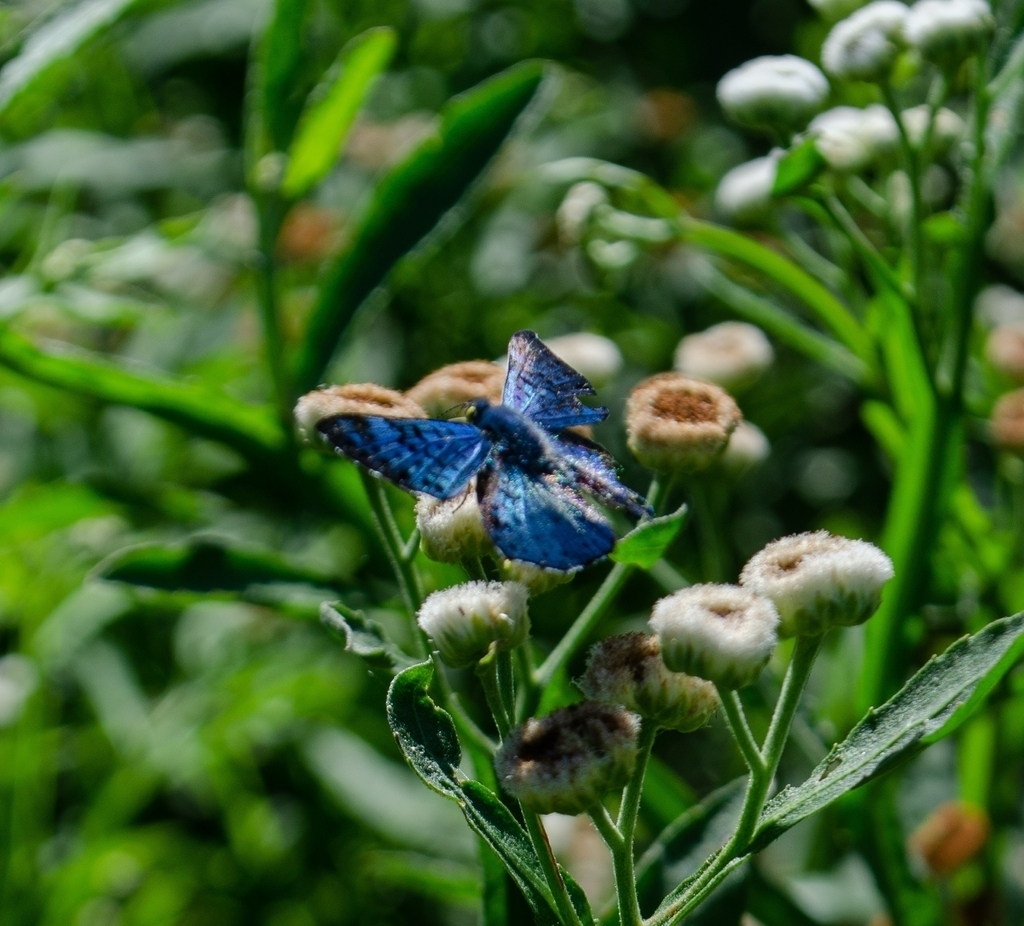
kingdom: Plantae
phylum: Tracheophyta
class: Magnoliopsida
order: Asterales
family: Asteraceae
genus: Pluchea
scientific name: Pluchea sagittalis
